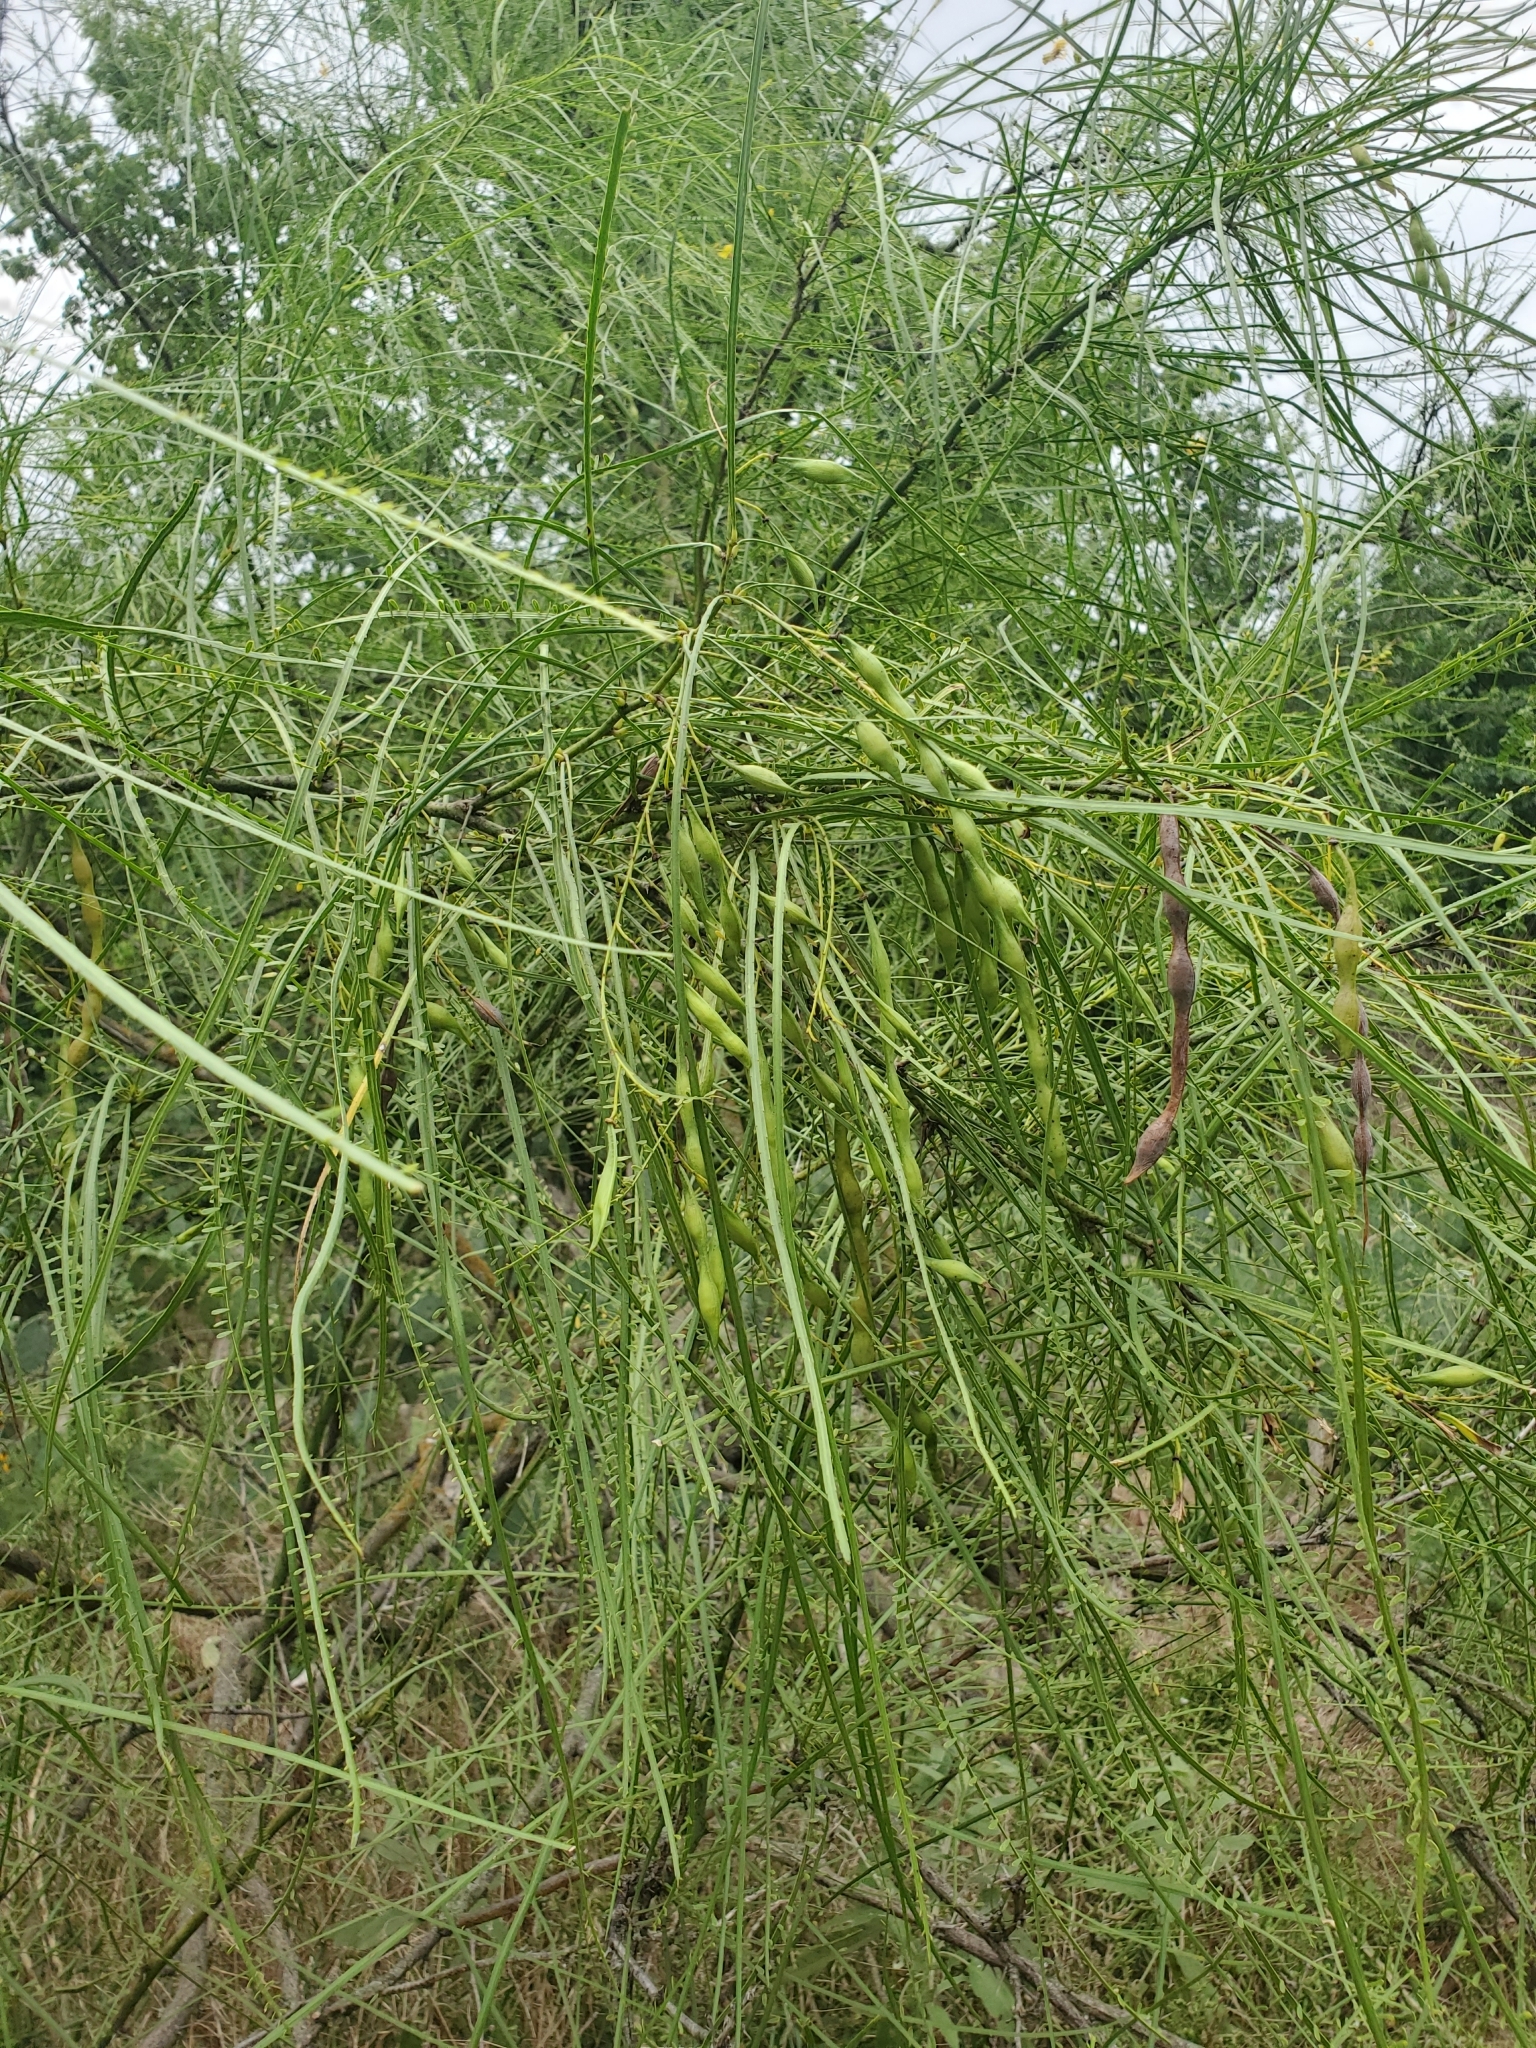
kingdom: Plantae
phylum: Tracheophyta
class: Magnoliopsida
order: Fabales
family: Fabaceae
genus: Parkinsonia
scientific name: Parkinsonia aculeata
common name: Jerusalem thorn
